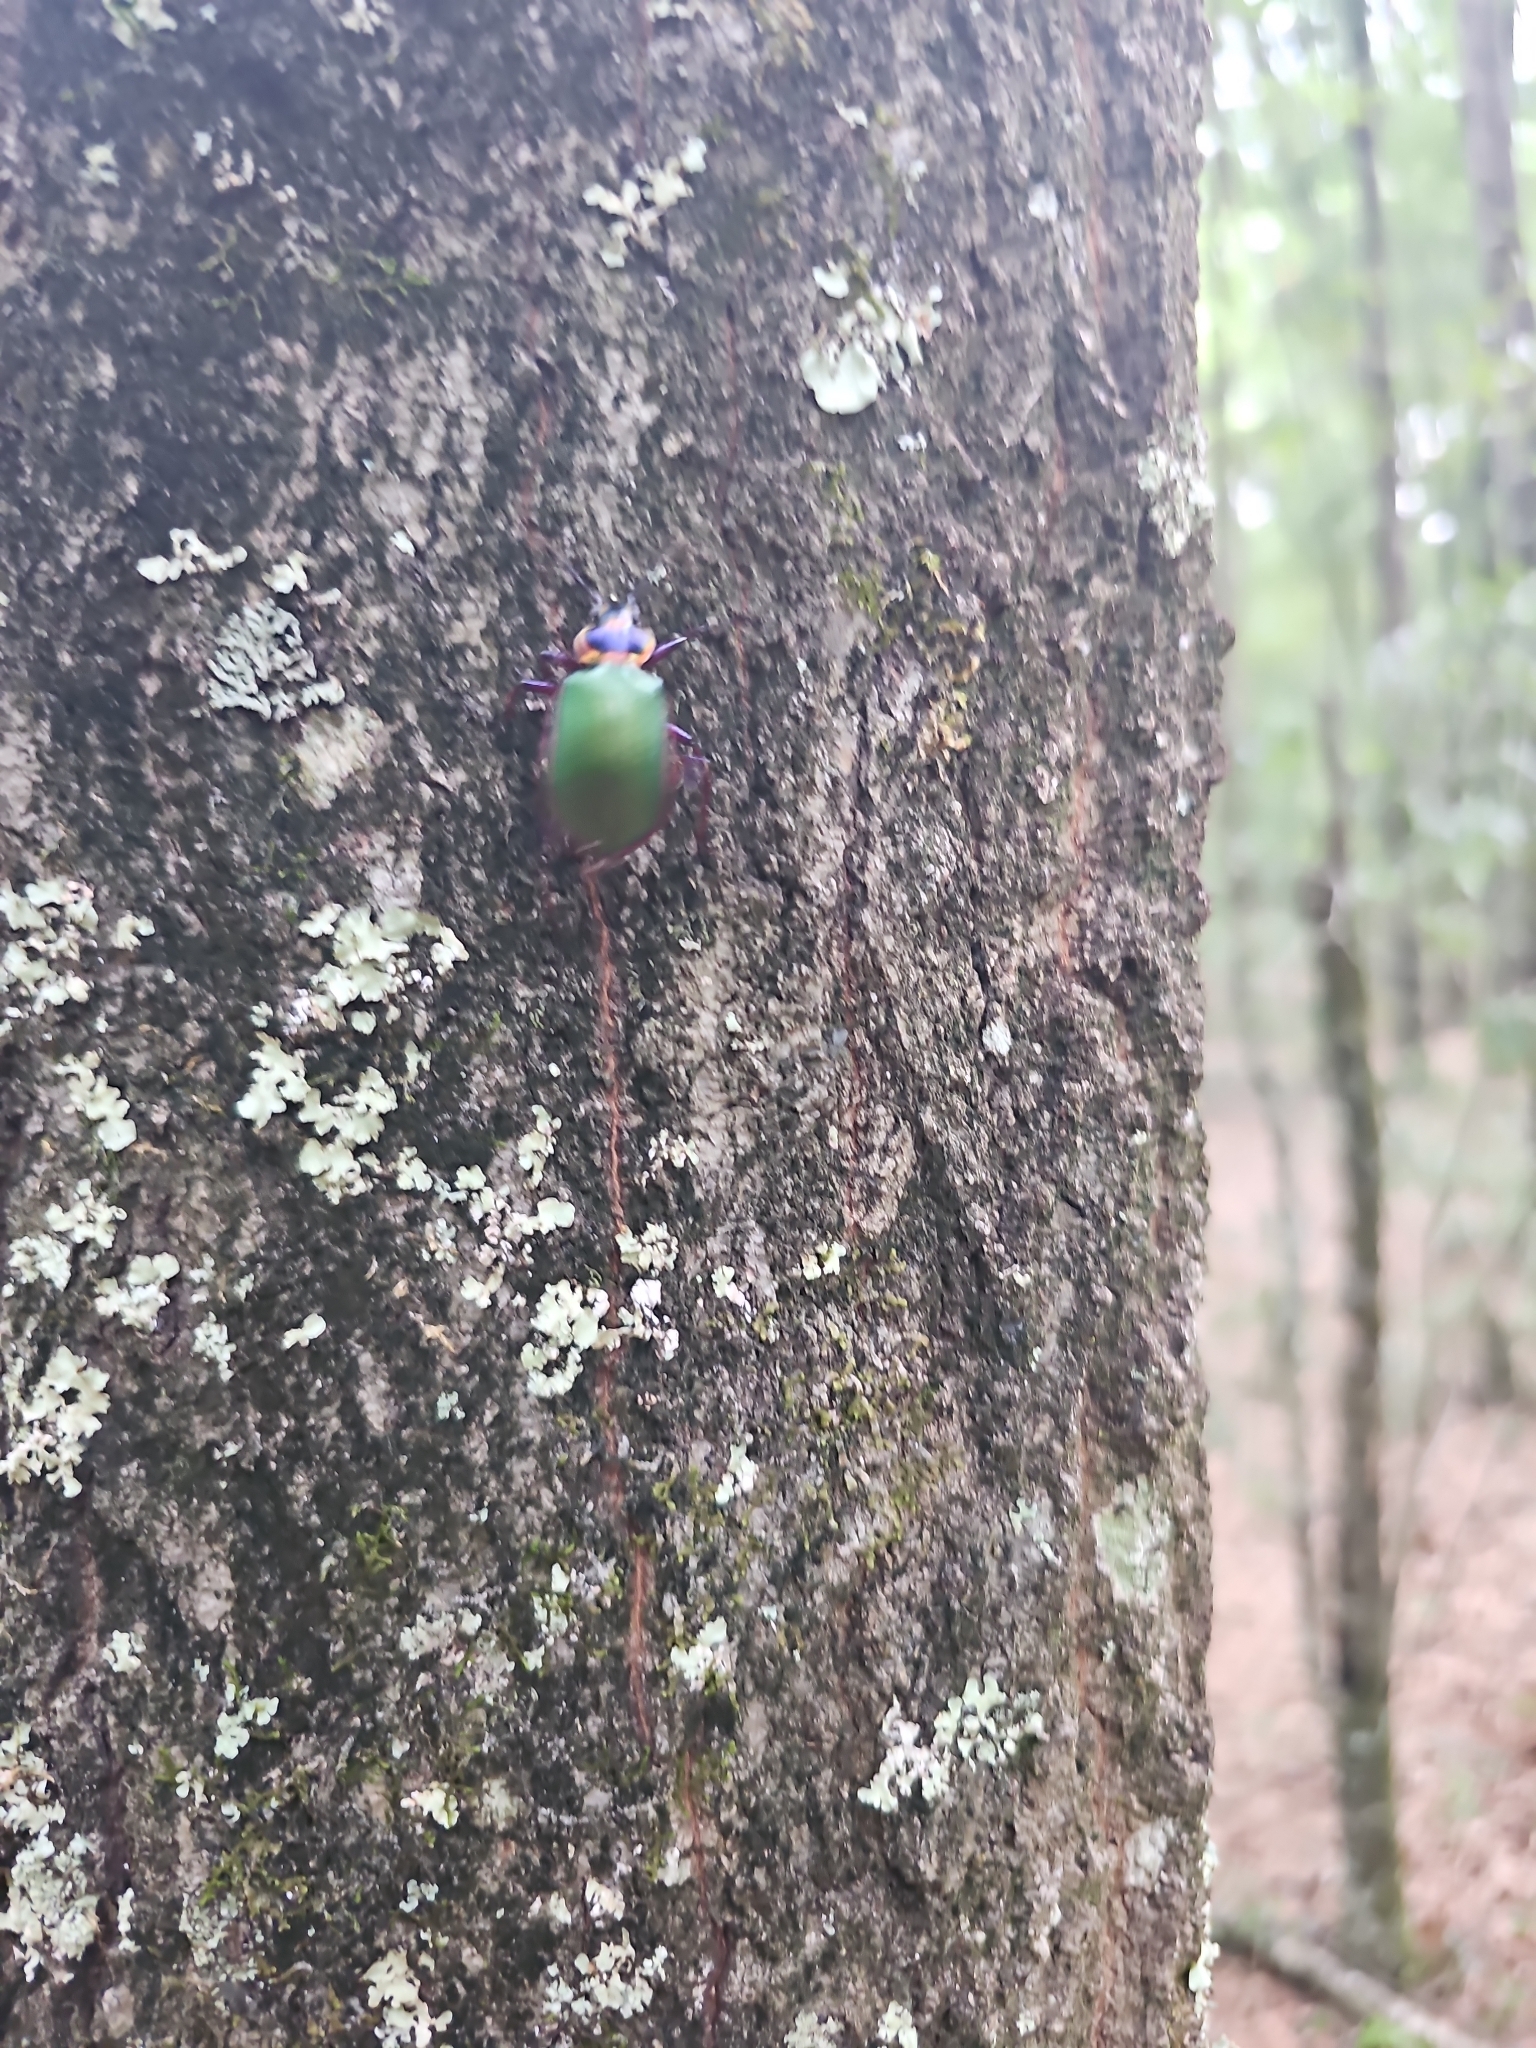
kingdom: Animalia
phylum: Arthropoda
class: Insecta
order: Coleoptera
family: Carabidae
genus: Calosoma
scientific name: Calosoma scrutator
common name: Fiery searcher beetle
